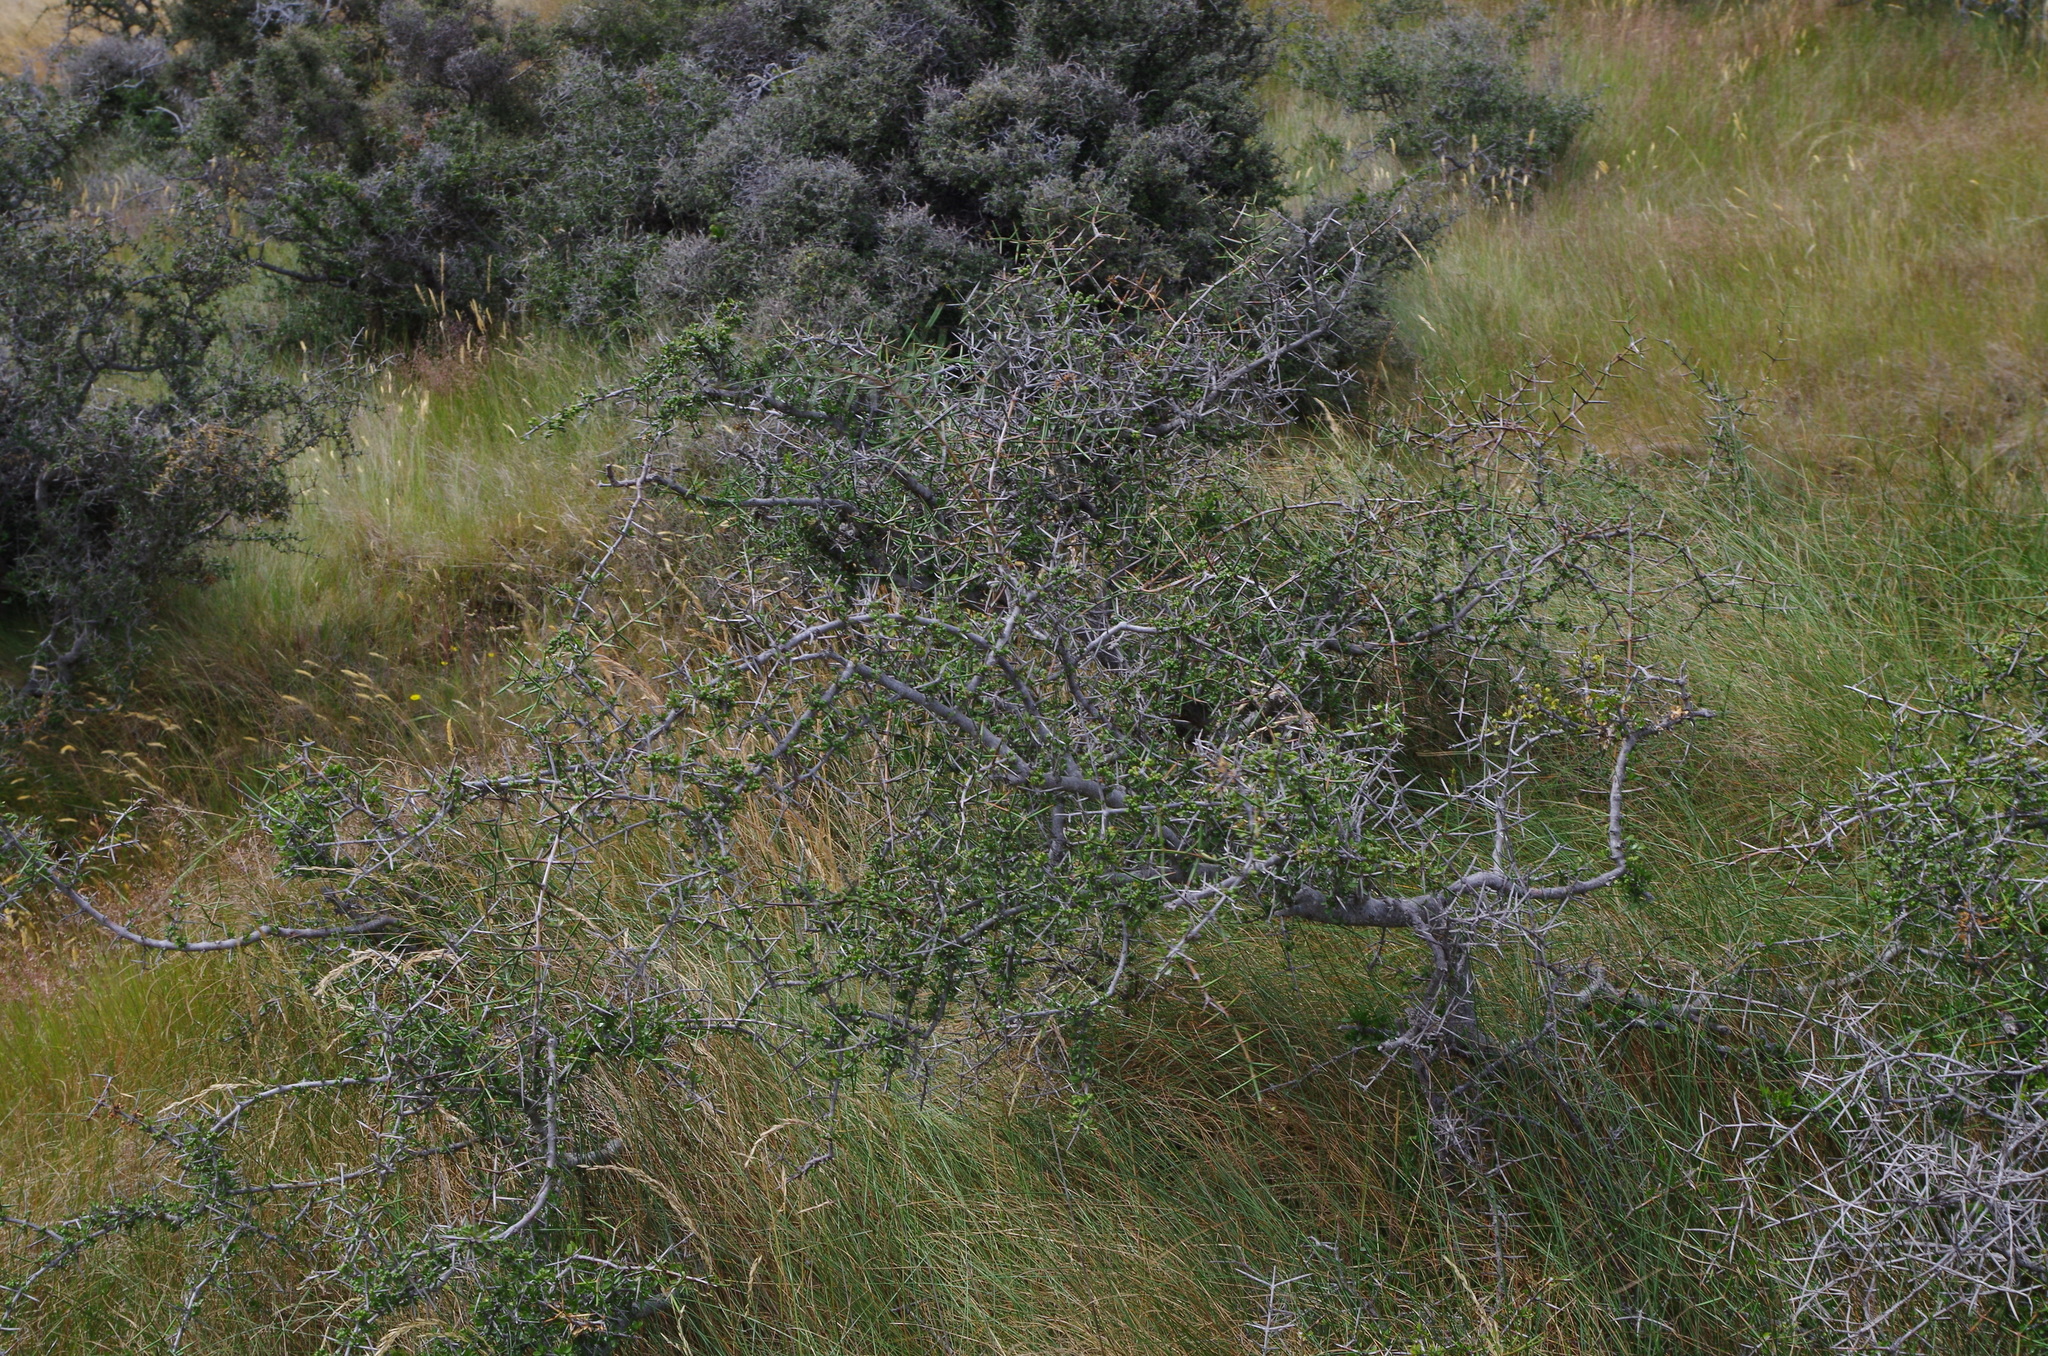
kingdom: Plantae
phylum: Tracheophyta
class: Magnoliopsida
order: Rosales
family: Rhamnaceae
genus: Discaria
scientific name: Discaria toumatou
